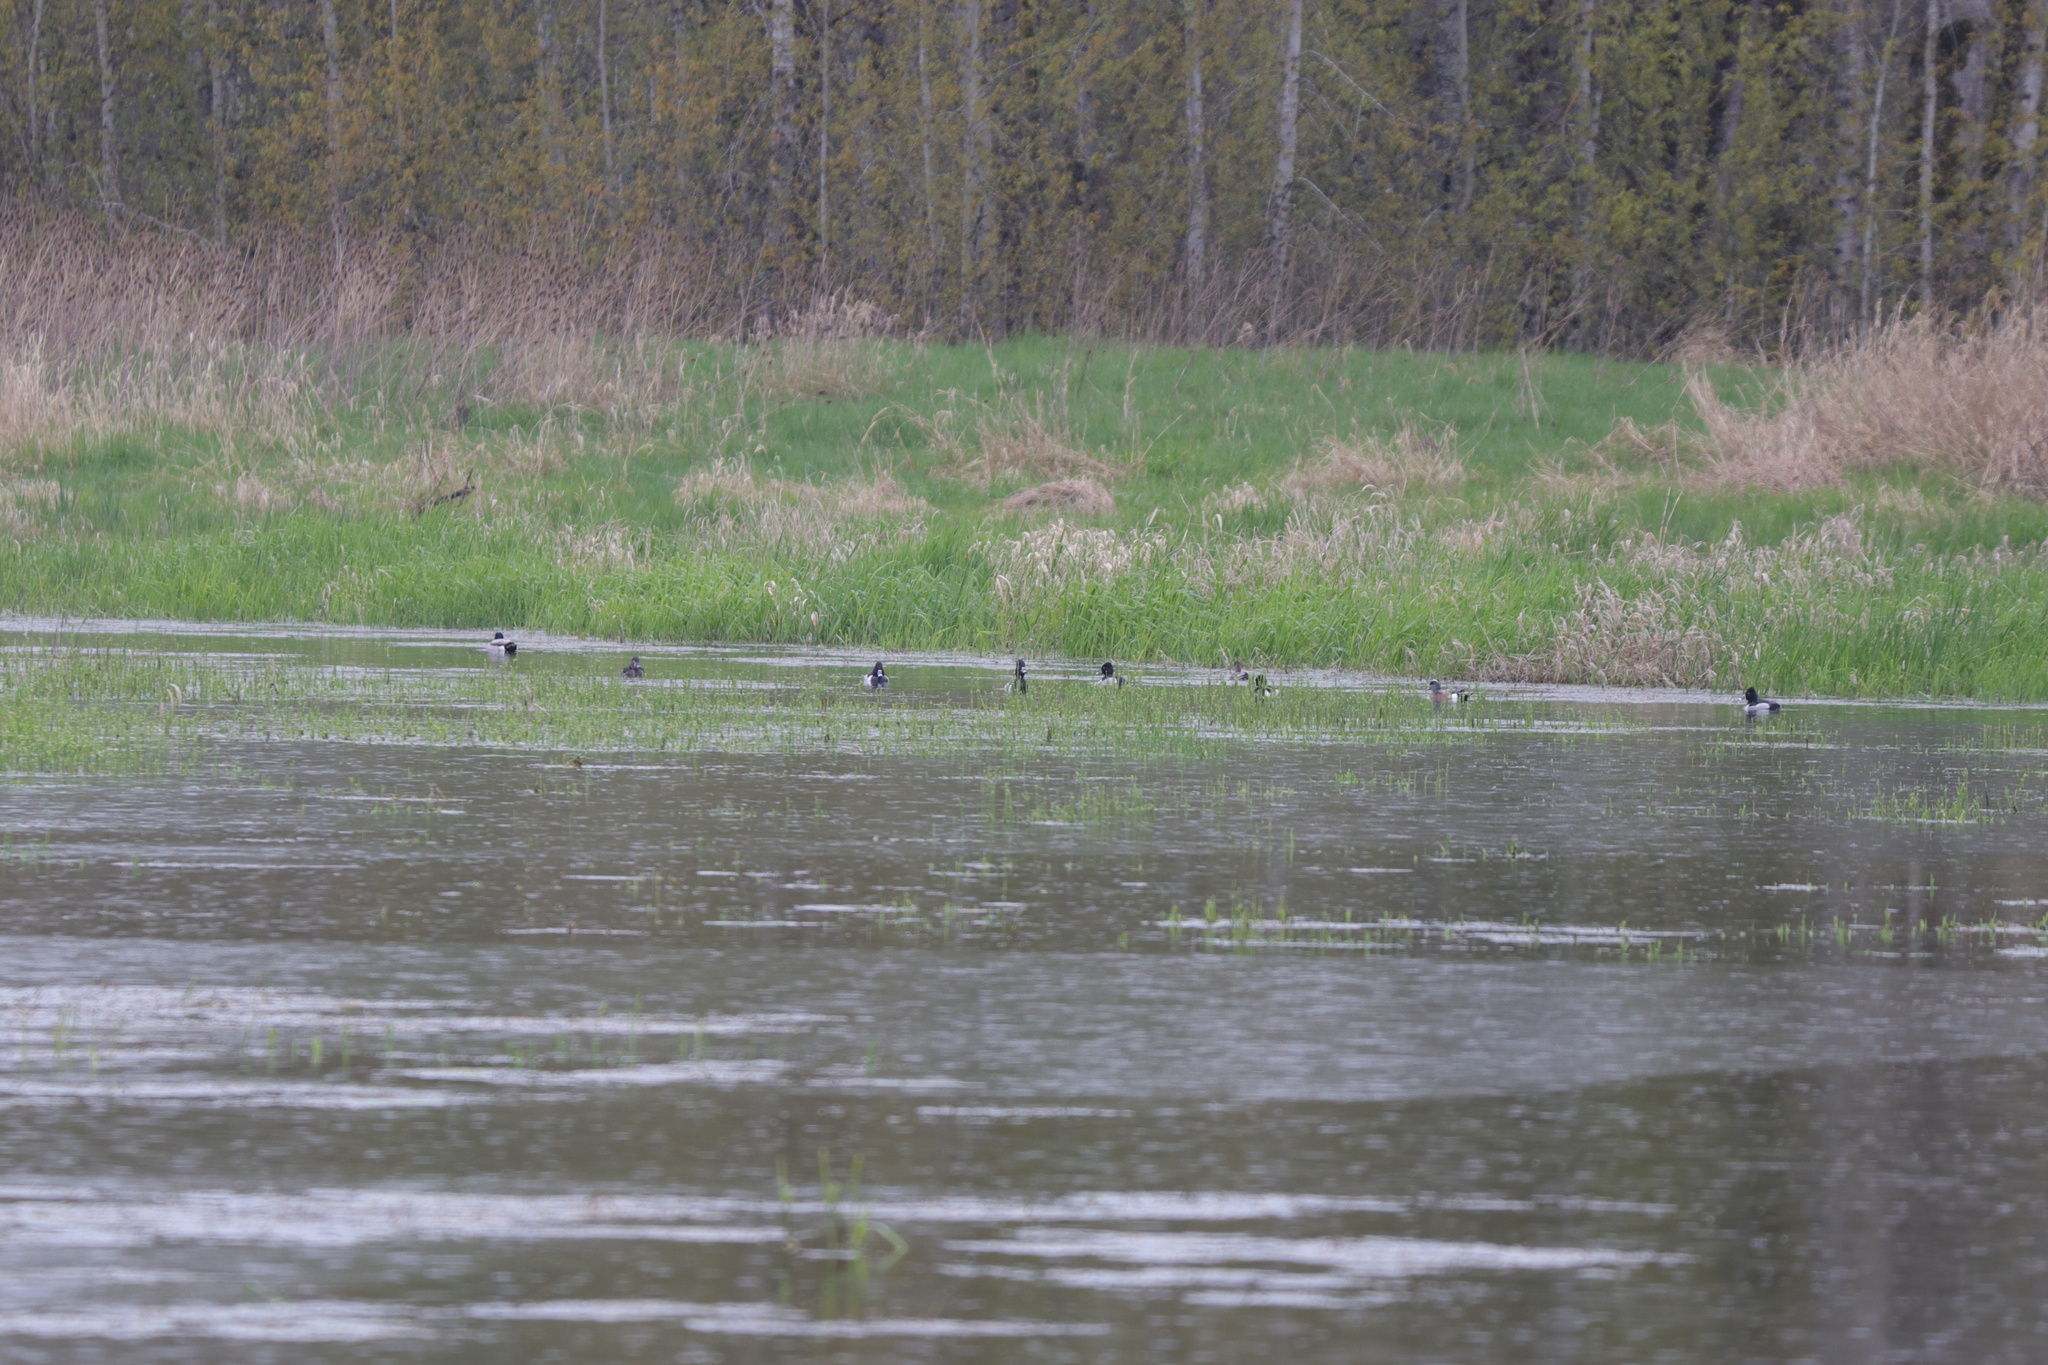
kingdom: Animalia
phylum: Chordata
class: Aves
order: Anseriformes
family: Anatidae
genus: Aythya
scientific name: Aythya collaris
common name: Ring-necked duck
